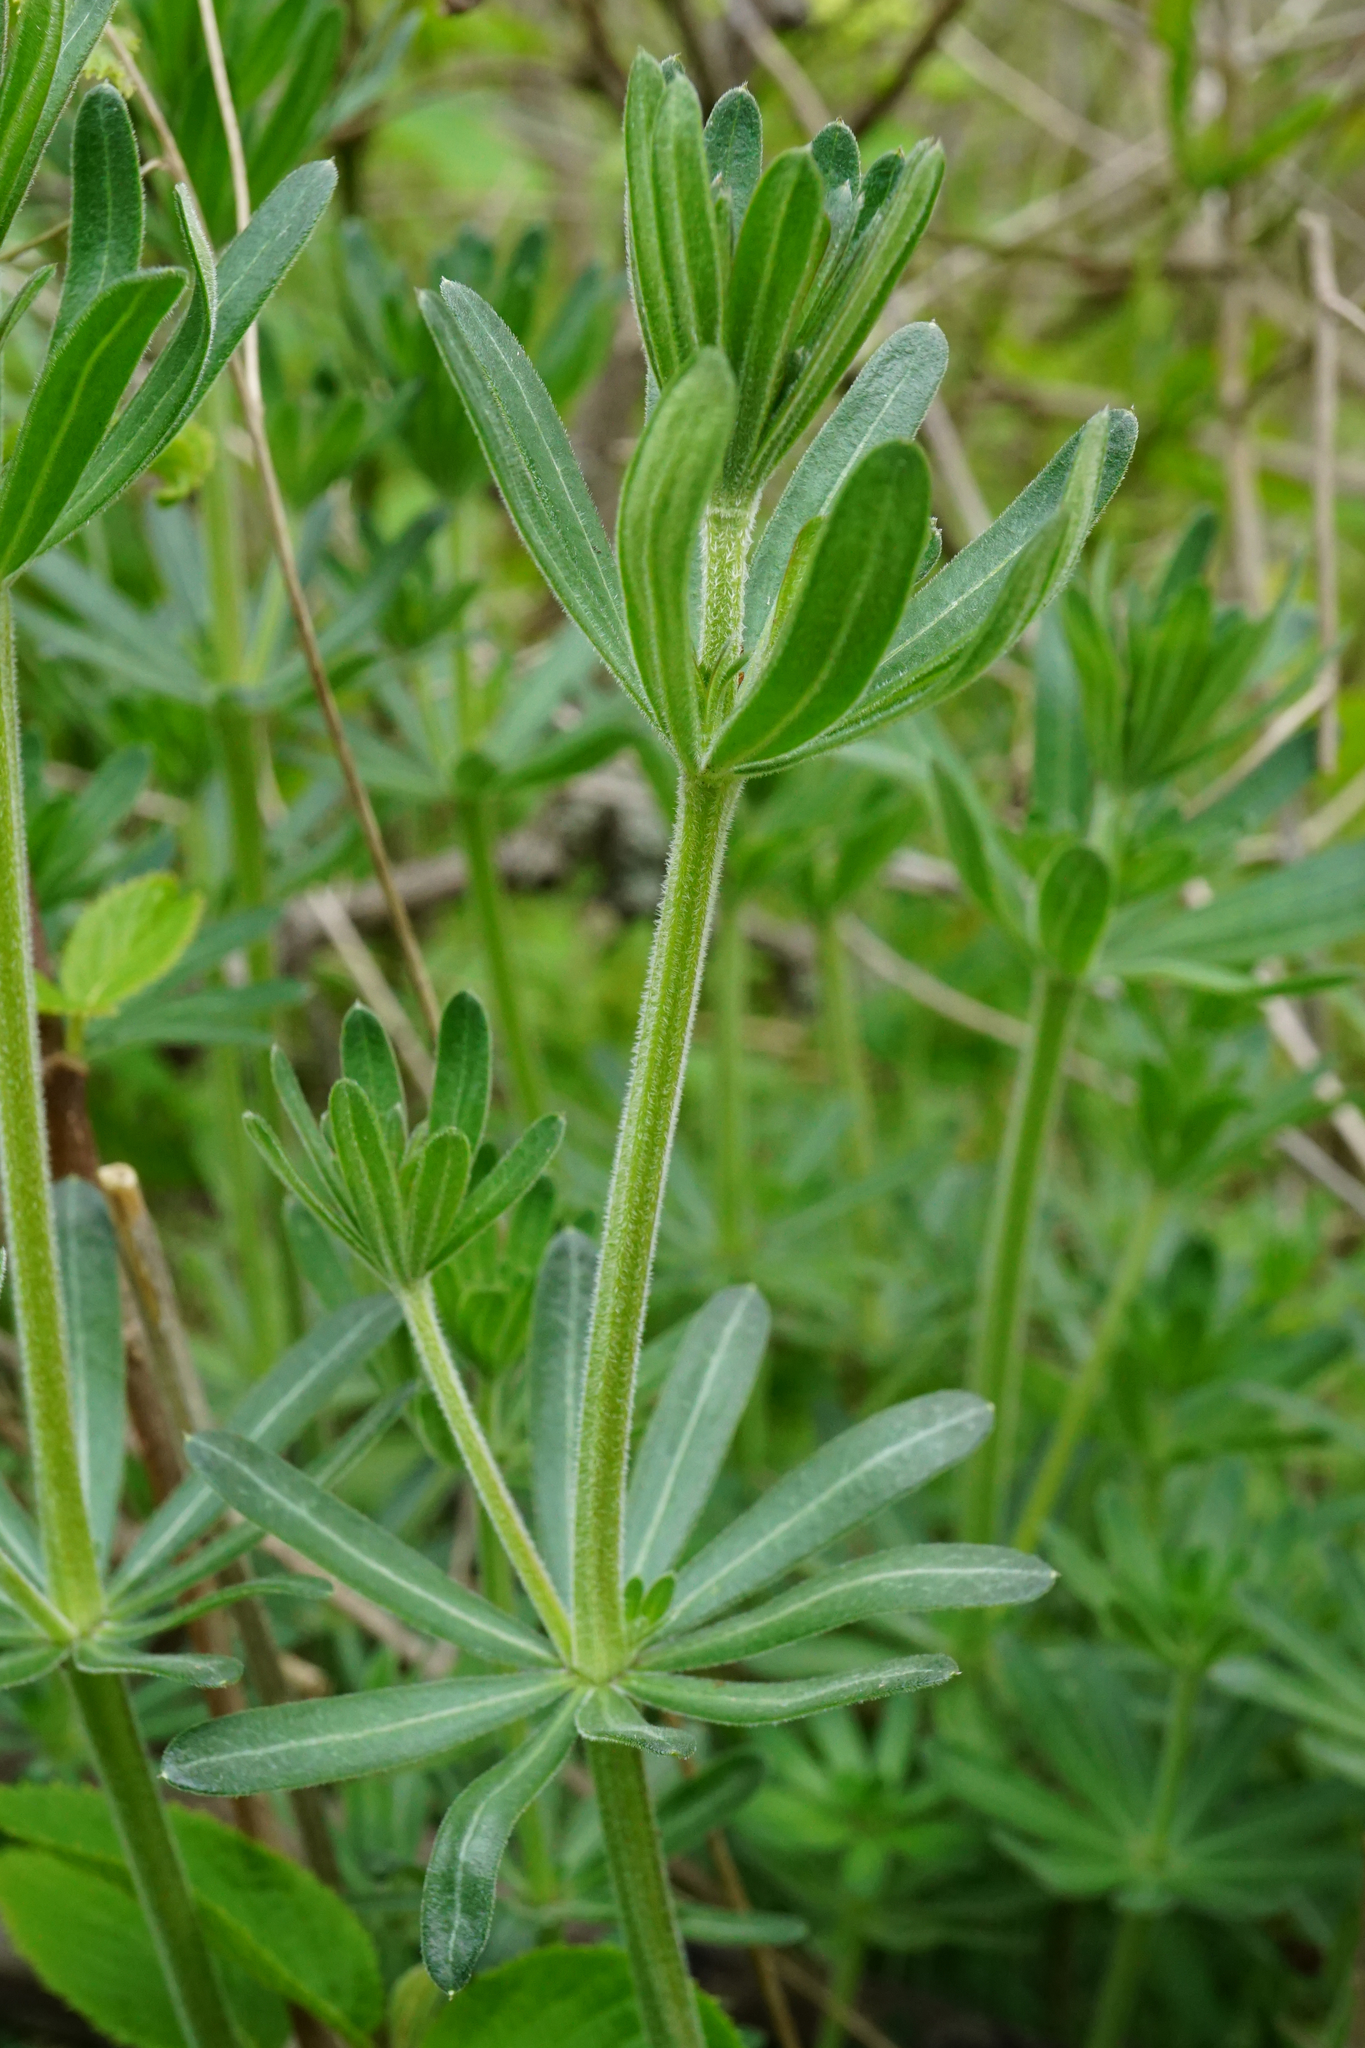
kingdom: Plantae
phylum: Tracheophyta
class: Magnoliopsida
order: Gentianales
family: Rubiaceae
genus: Galium
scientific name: Galium album
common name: White bedstraw
